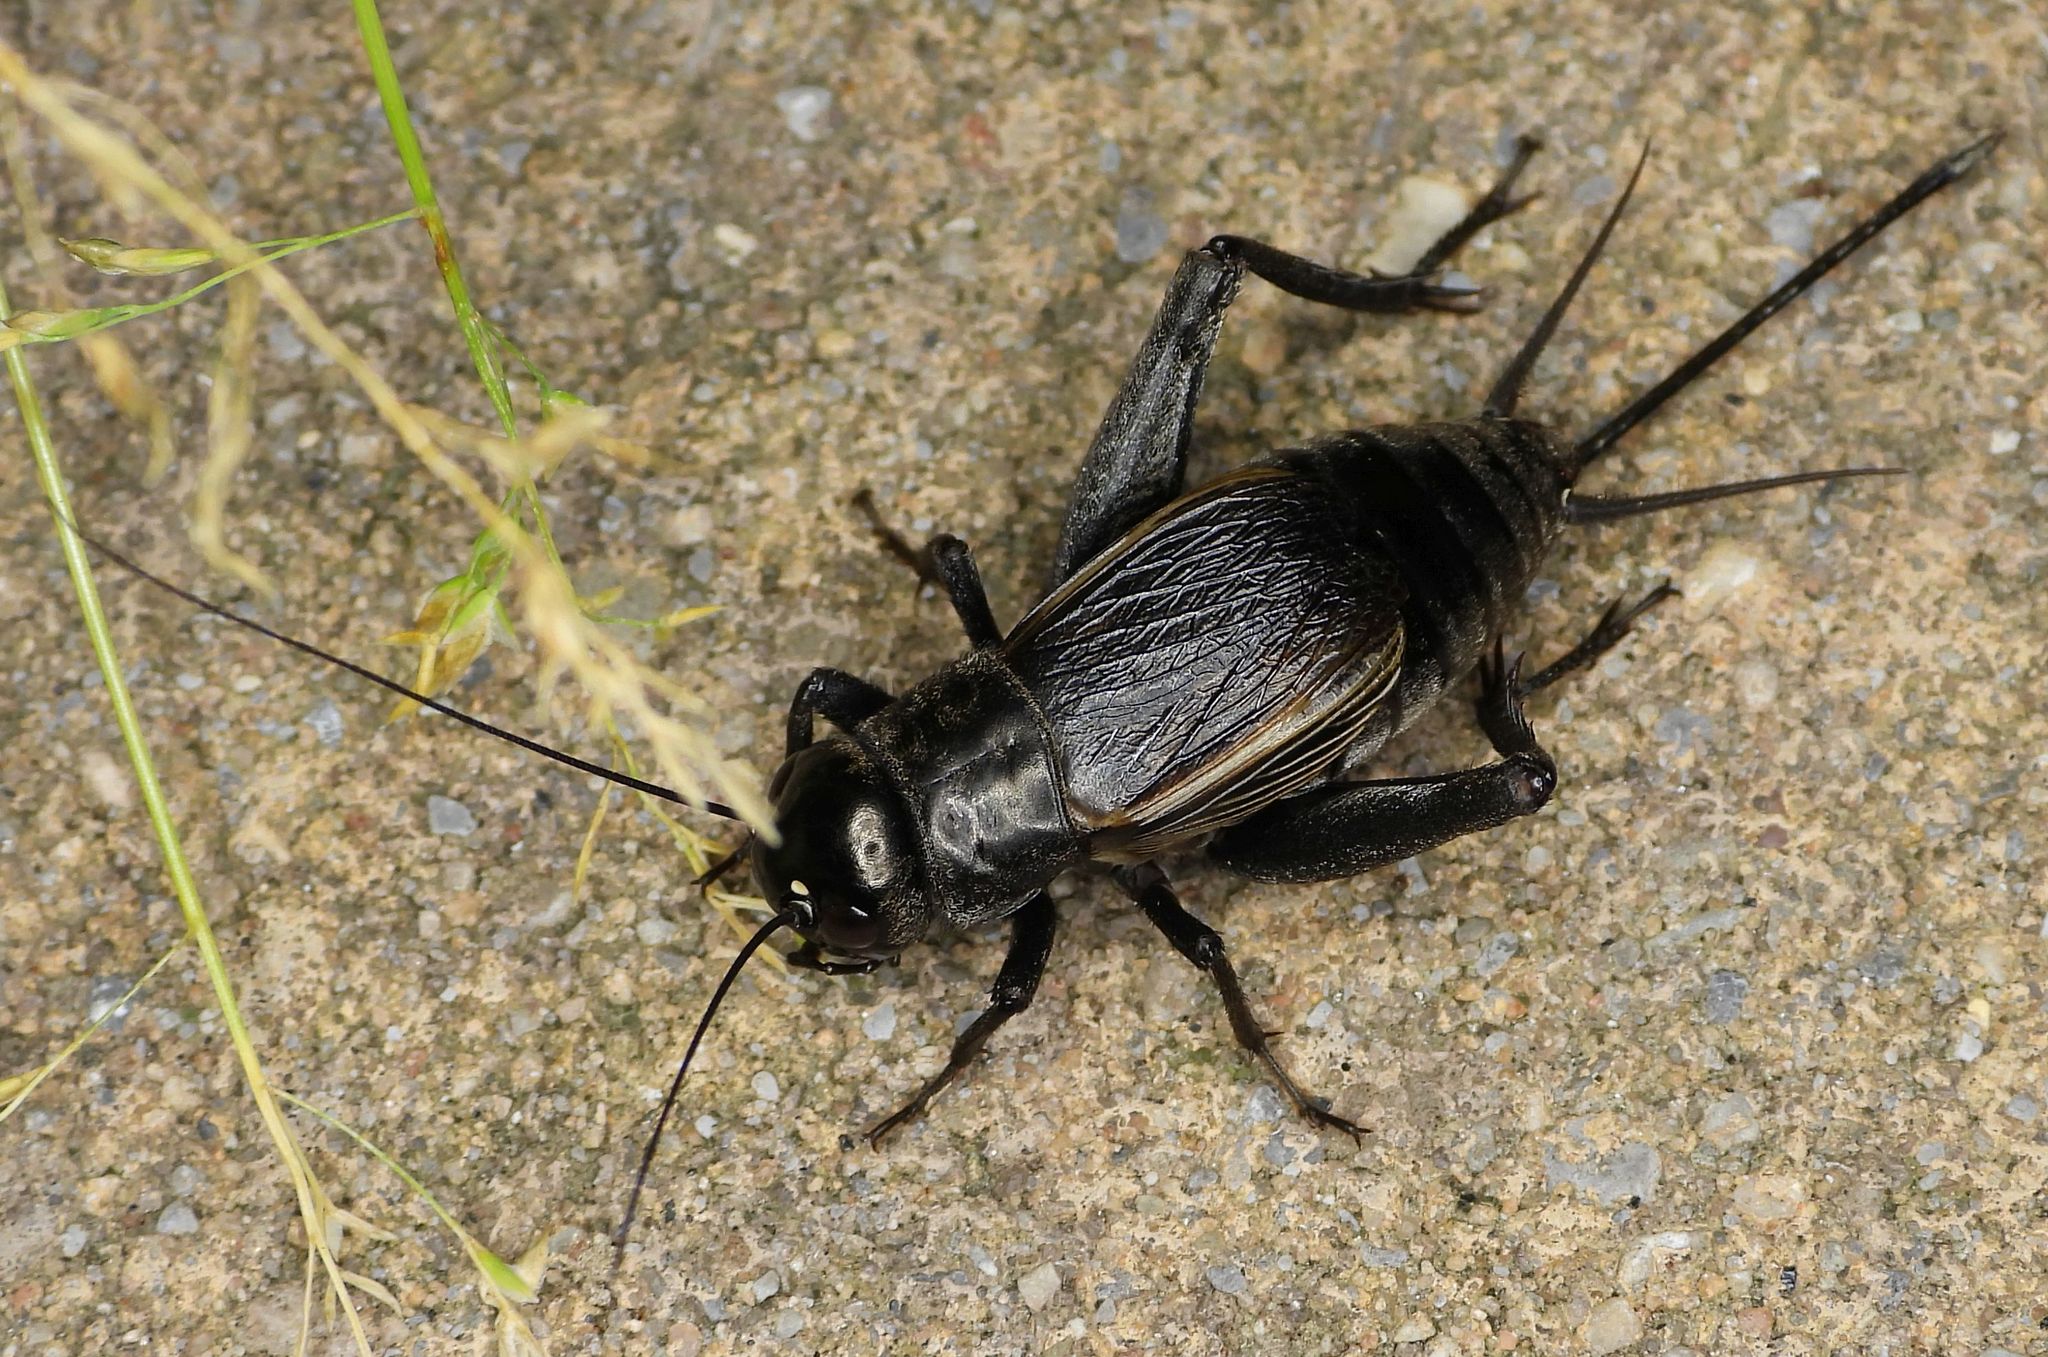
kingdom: Animalia
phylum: Arthropoda
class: Insecta
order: Orthoptera
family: Gryllidae
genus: Gryllus
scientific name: Gryllus pennsylvanicus
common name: Fall field cricket
